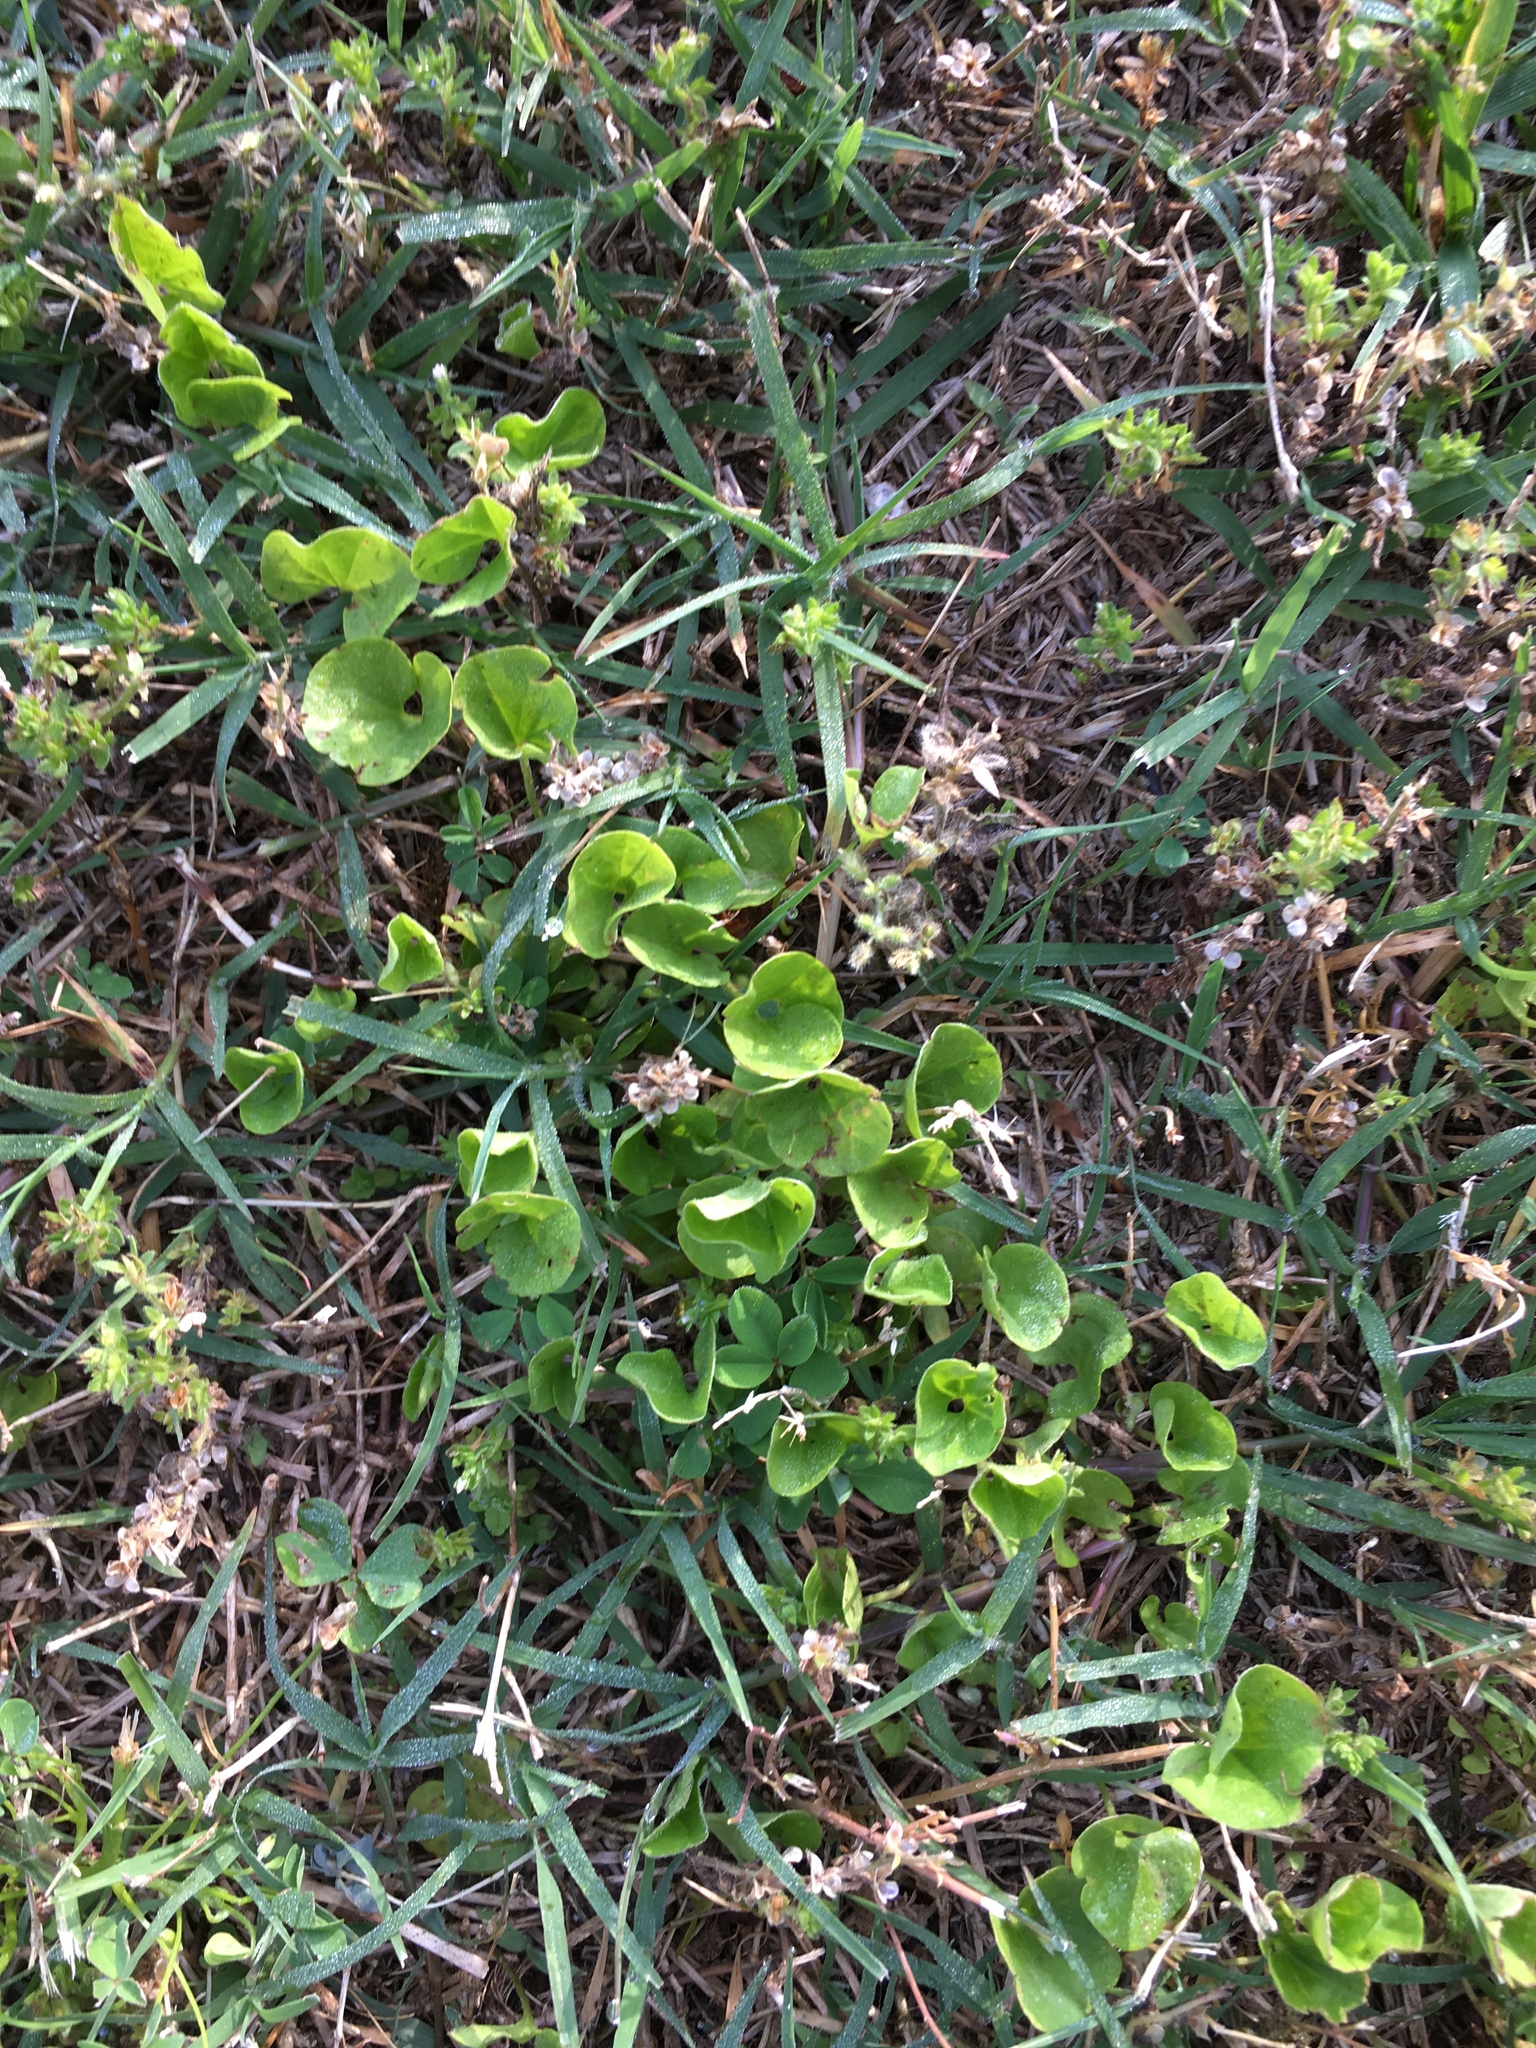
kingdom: Plantae
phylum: Tracheophyta
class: Magnoliopsida
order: Solanales
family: Convolvulaceae
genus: Dichondra
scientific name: Dichondra carolinensis
